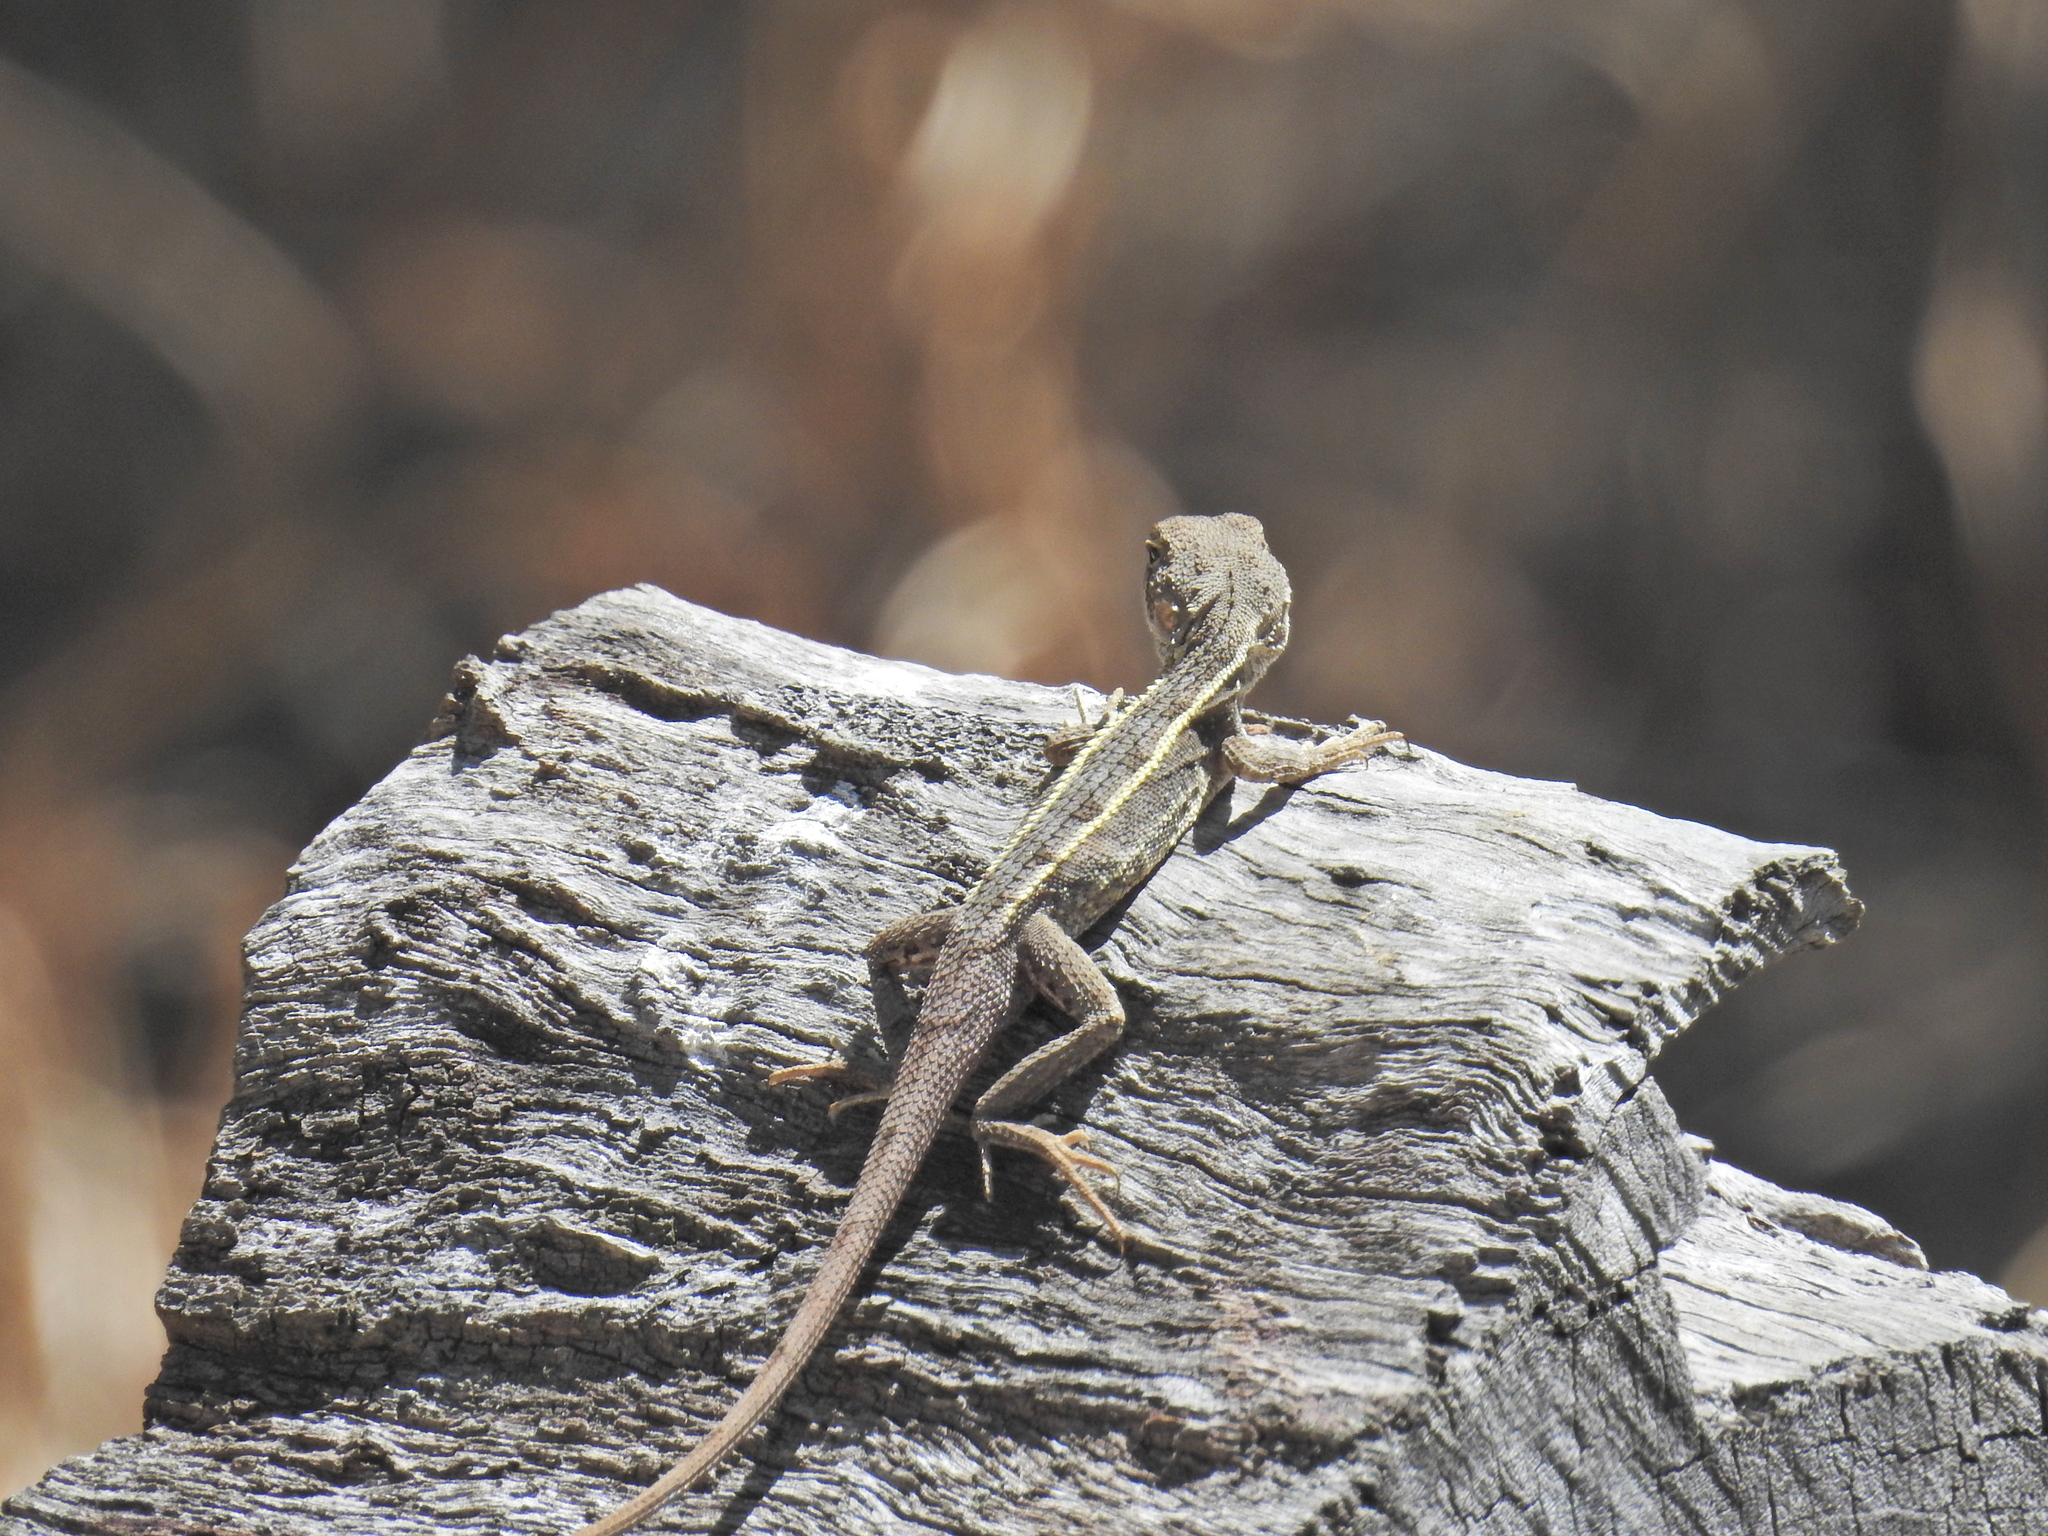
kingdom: Animalia
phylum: Chordata
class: Squamata
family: Agamidae
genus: Diporiphora
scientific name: Diporiphora nobbi
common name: Nobbi
